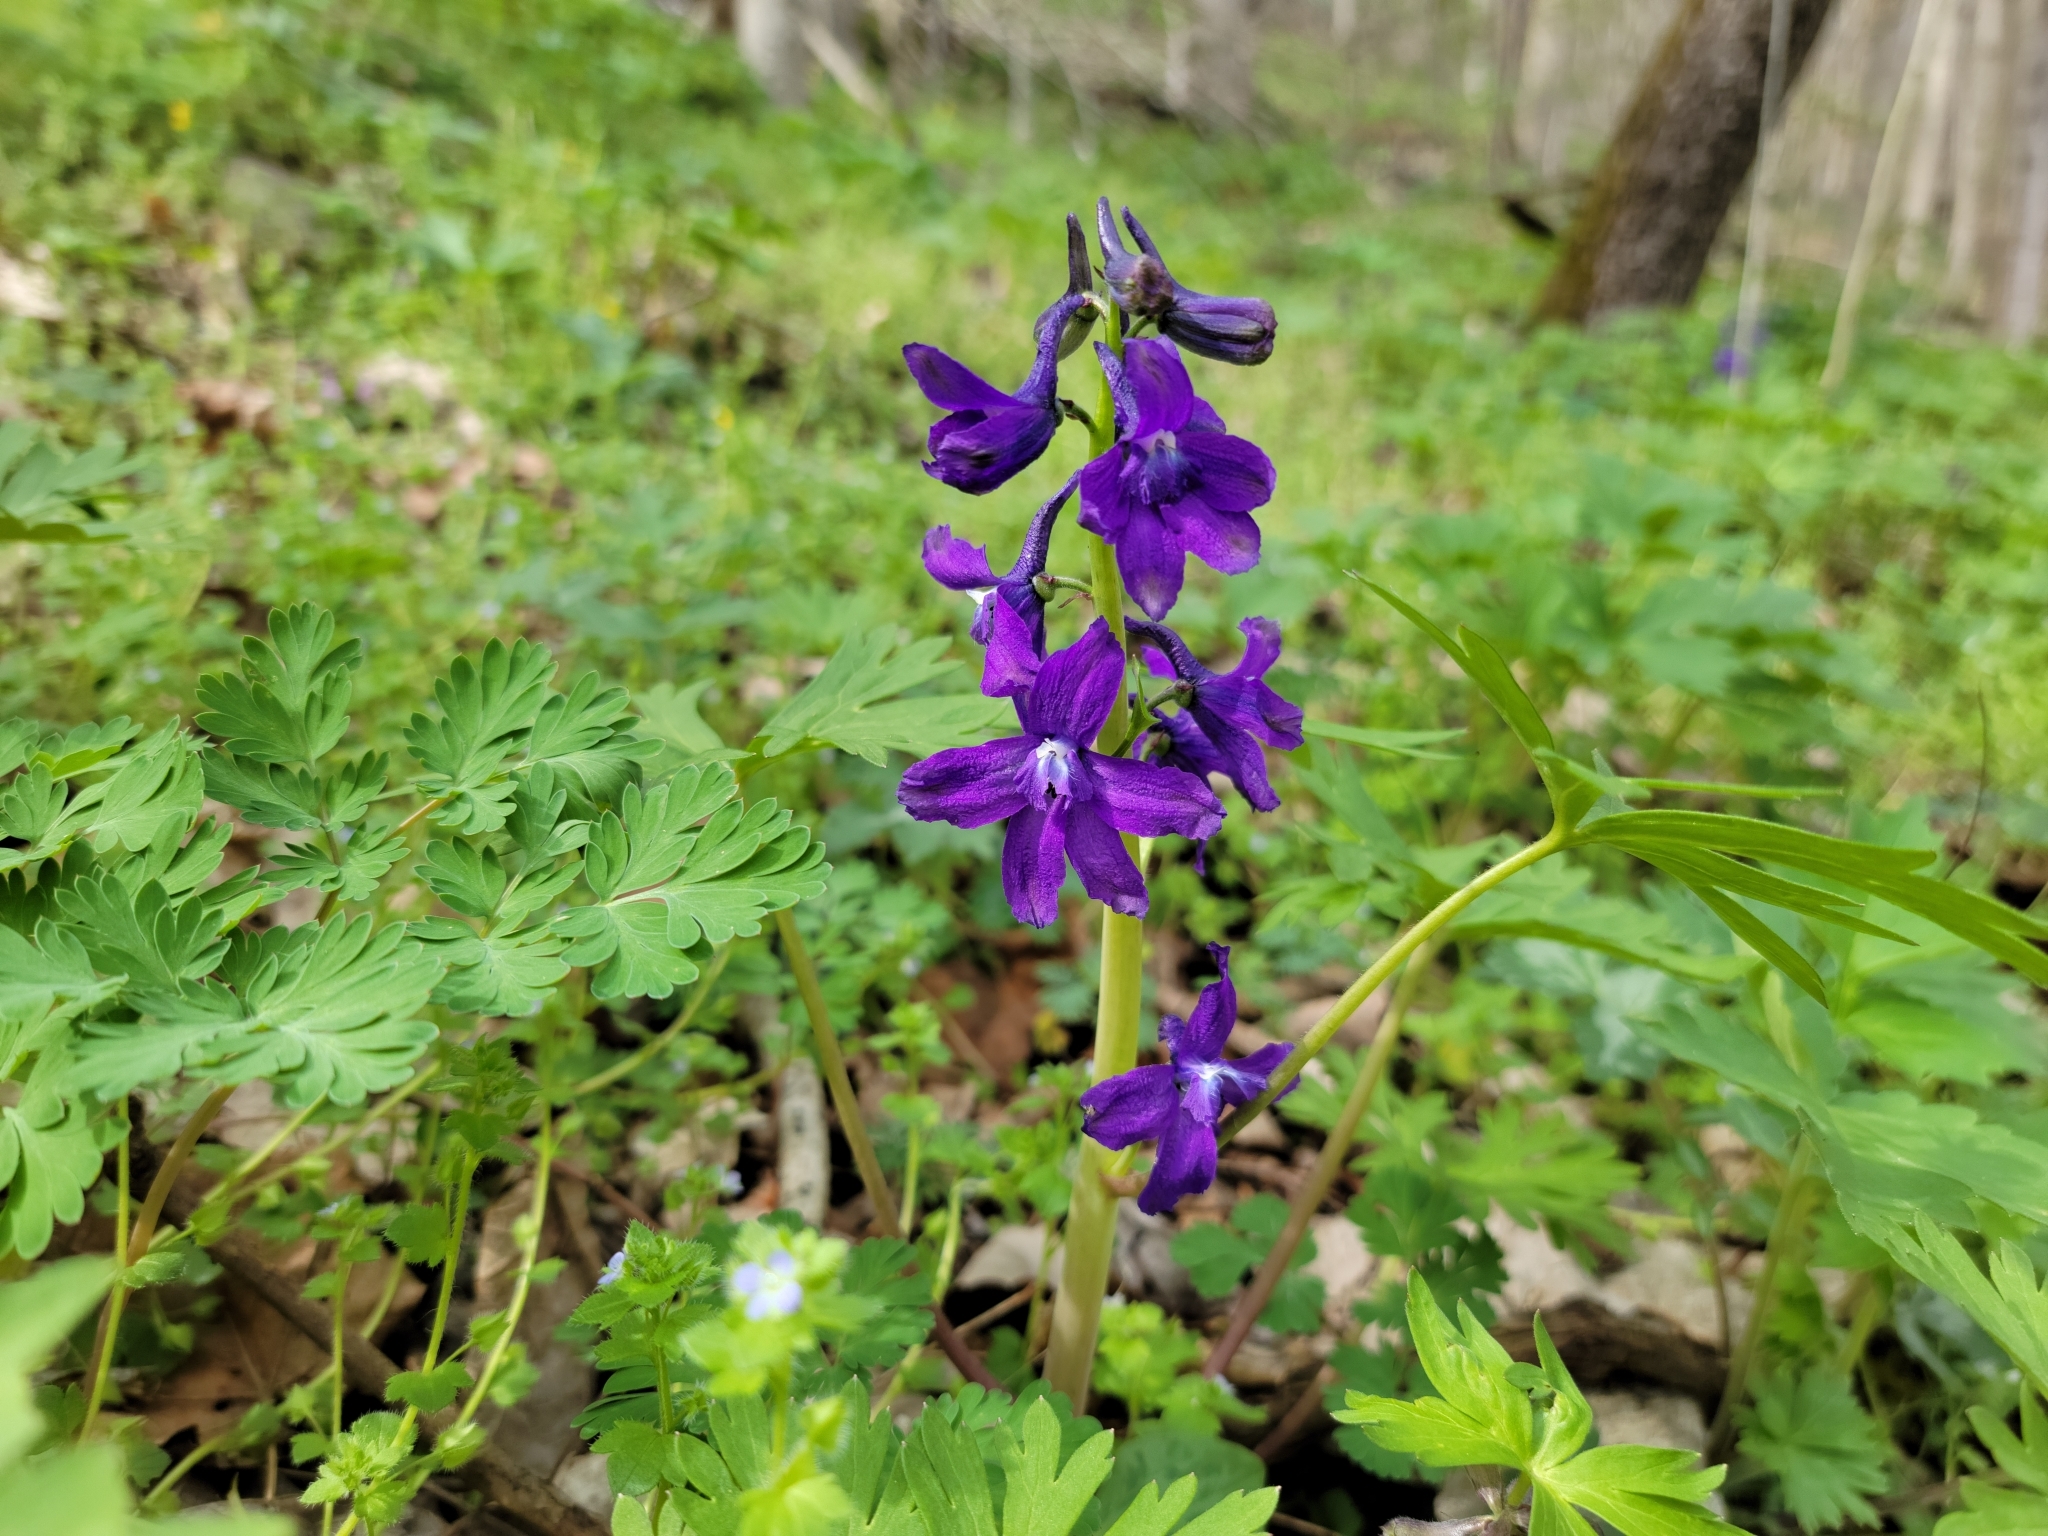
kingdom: Plantae
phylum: Tracheophyta
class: Magnoliopsida
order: Ranunculales
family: Ranunculaceae
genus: Delphinium
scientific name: Delphinium tricorne
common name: Dwarf larkspur
